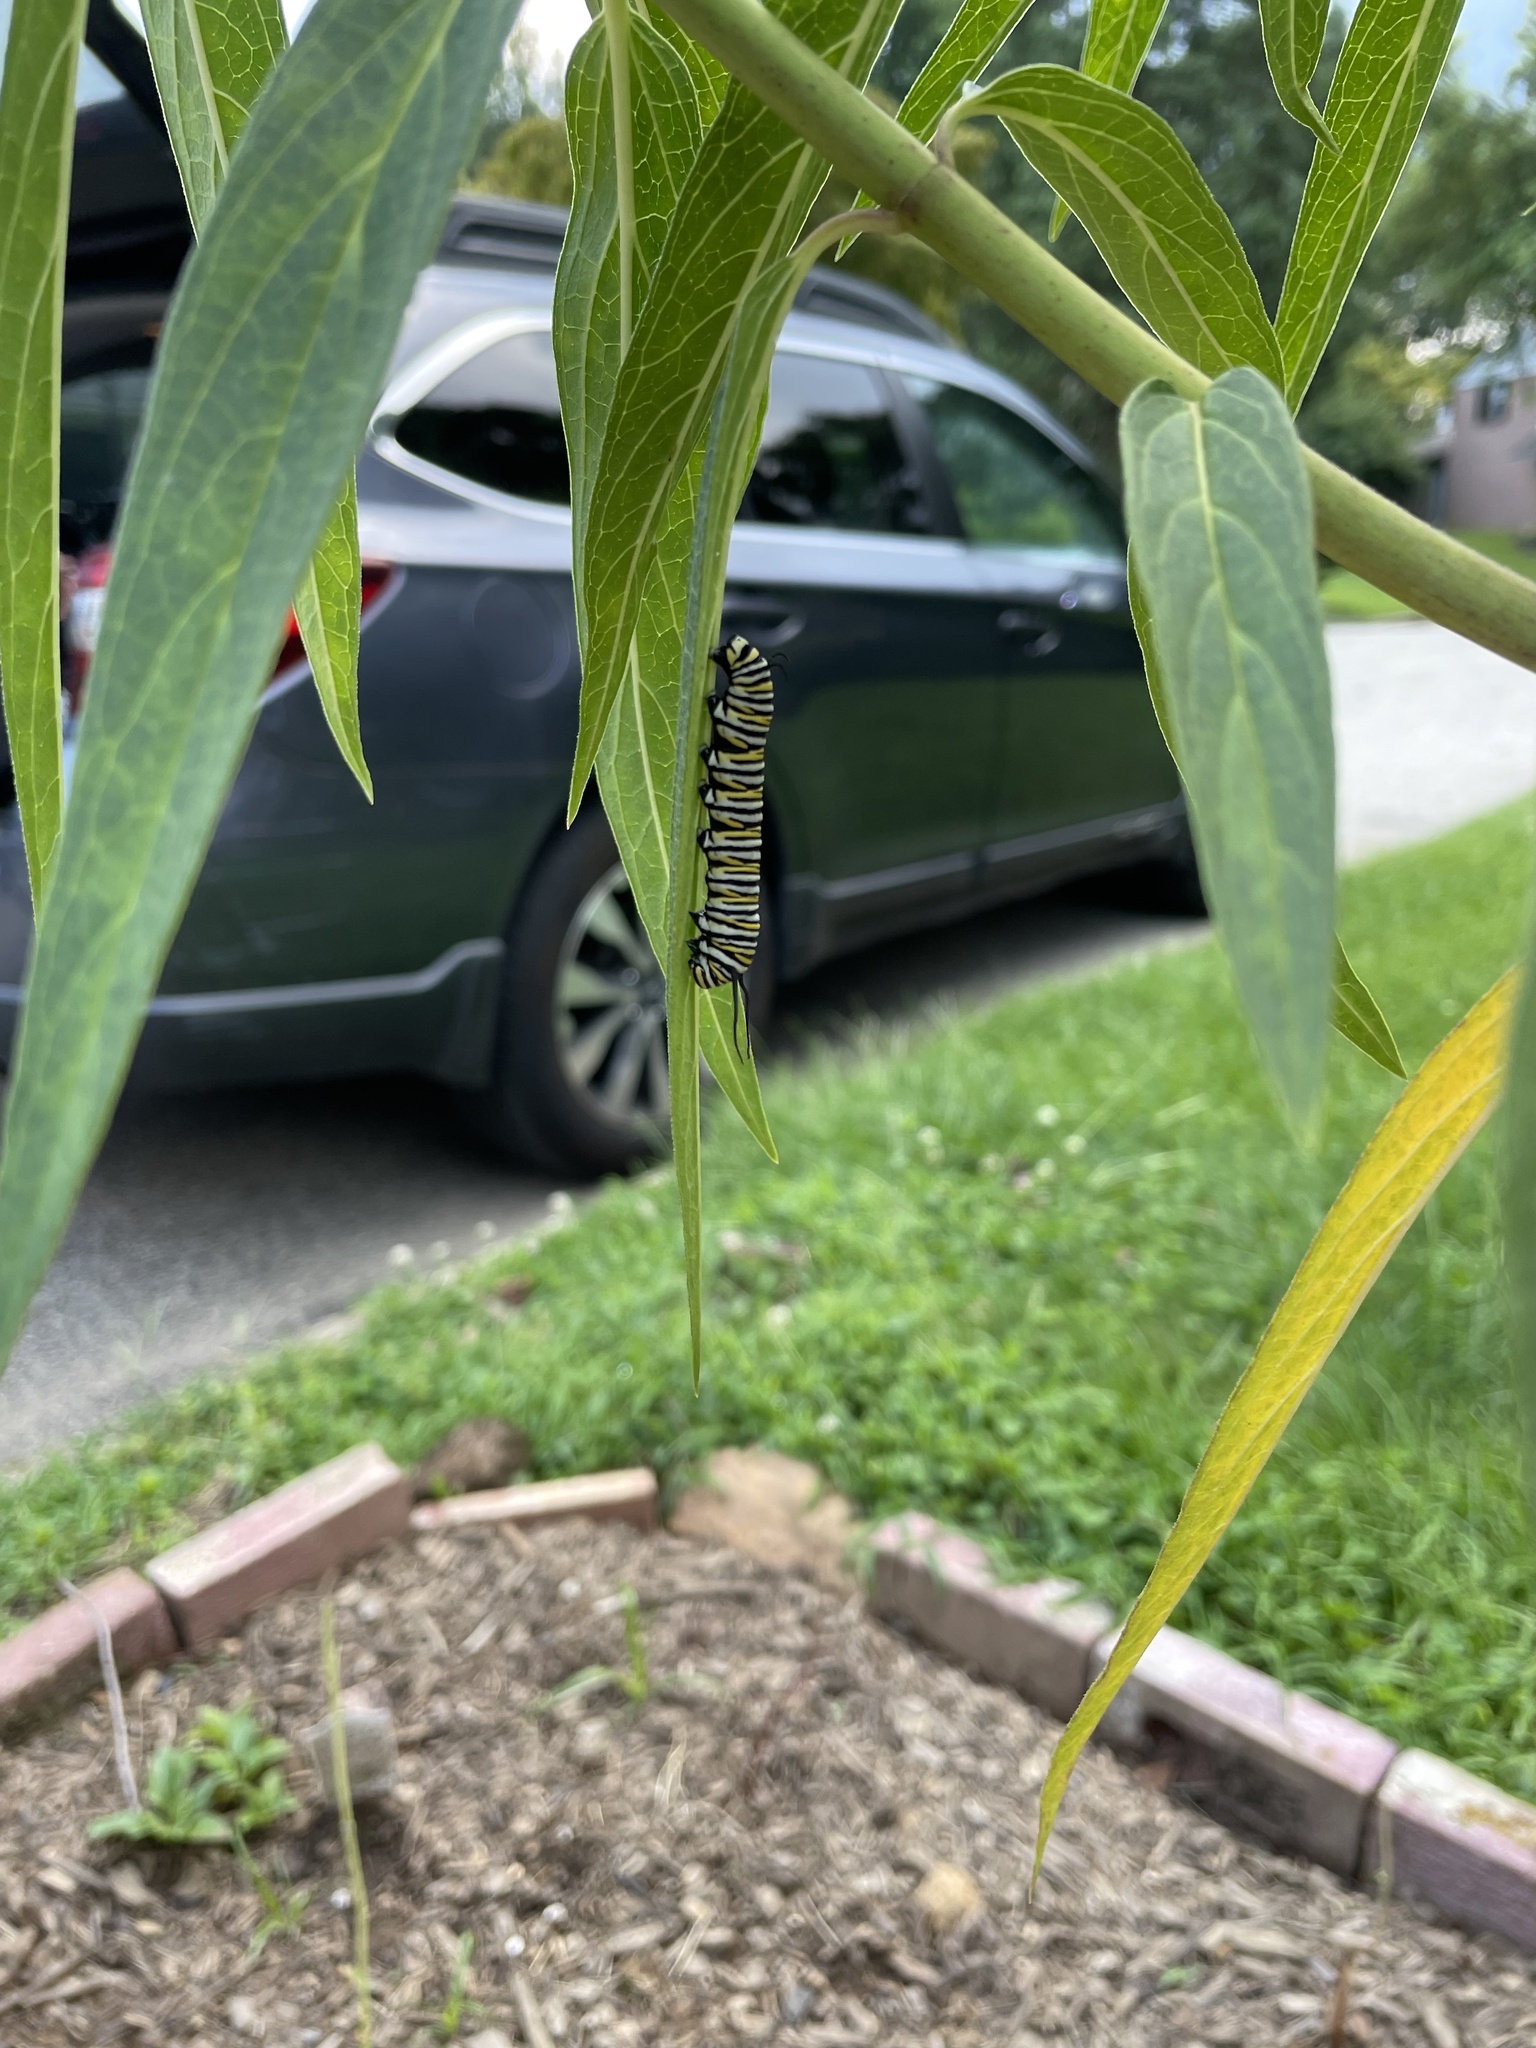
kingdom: Animalia
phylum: Arthropoda
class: Insecta
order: Lepidoptera
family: Nymphalidae
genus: Danaus
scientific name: Danaus plexippus
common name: Monarch
